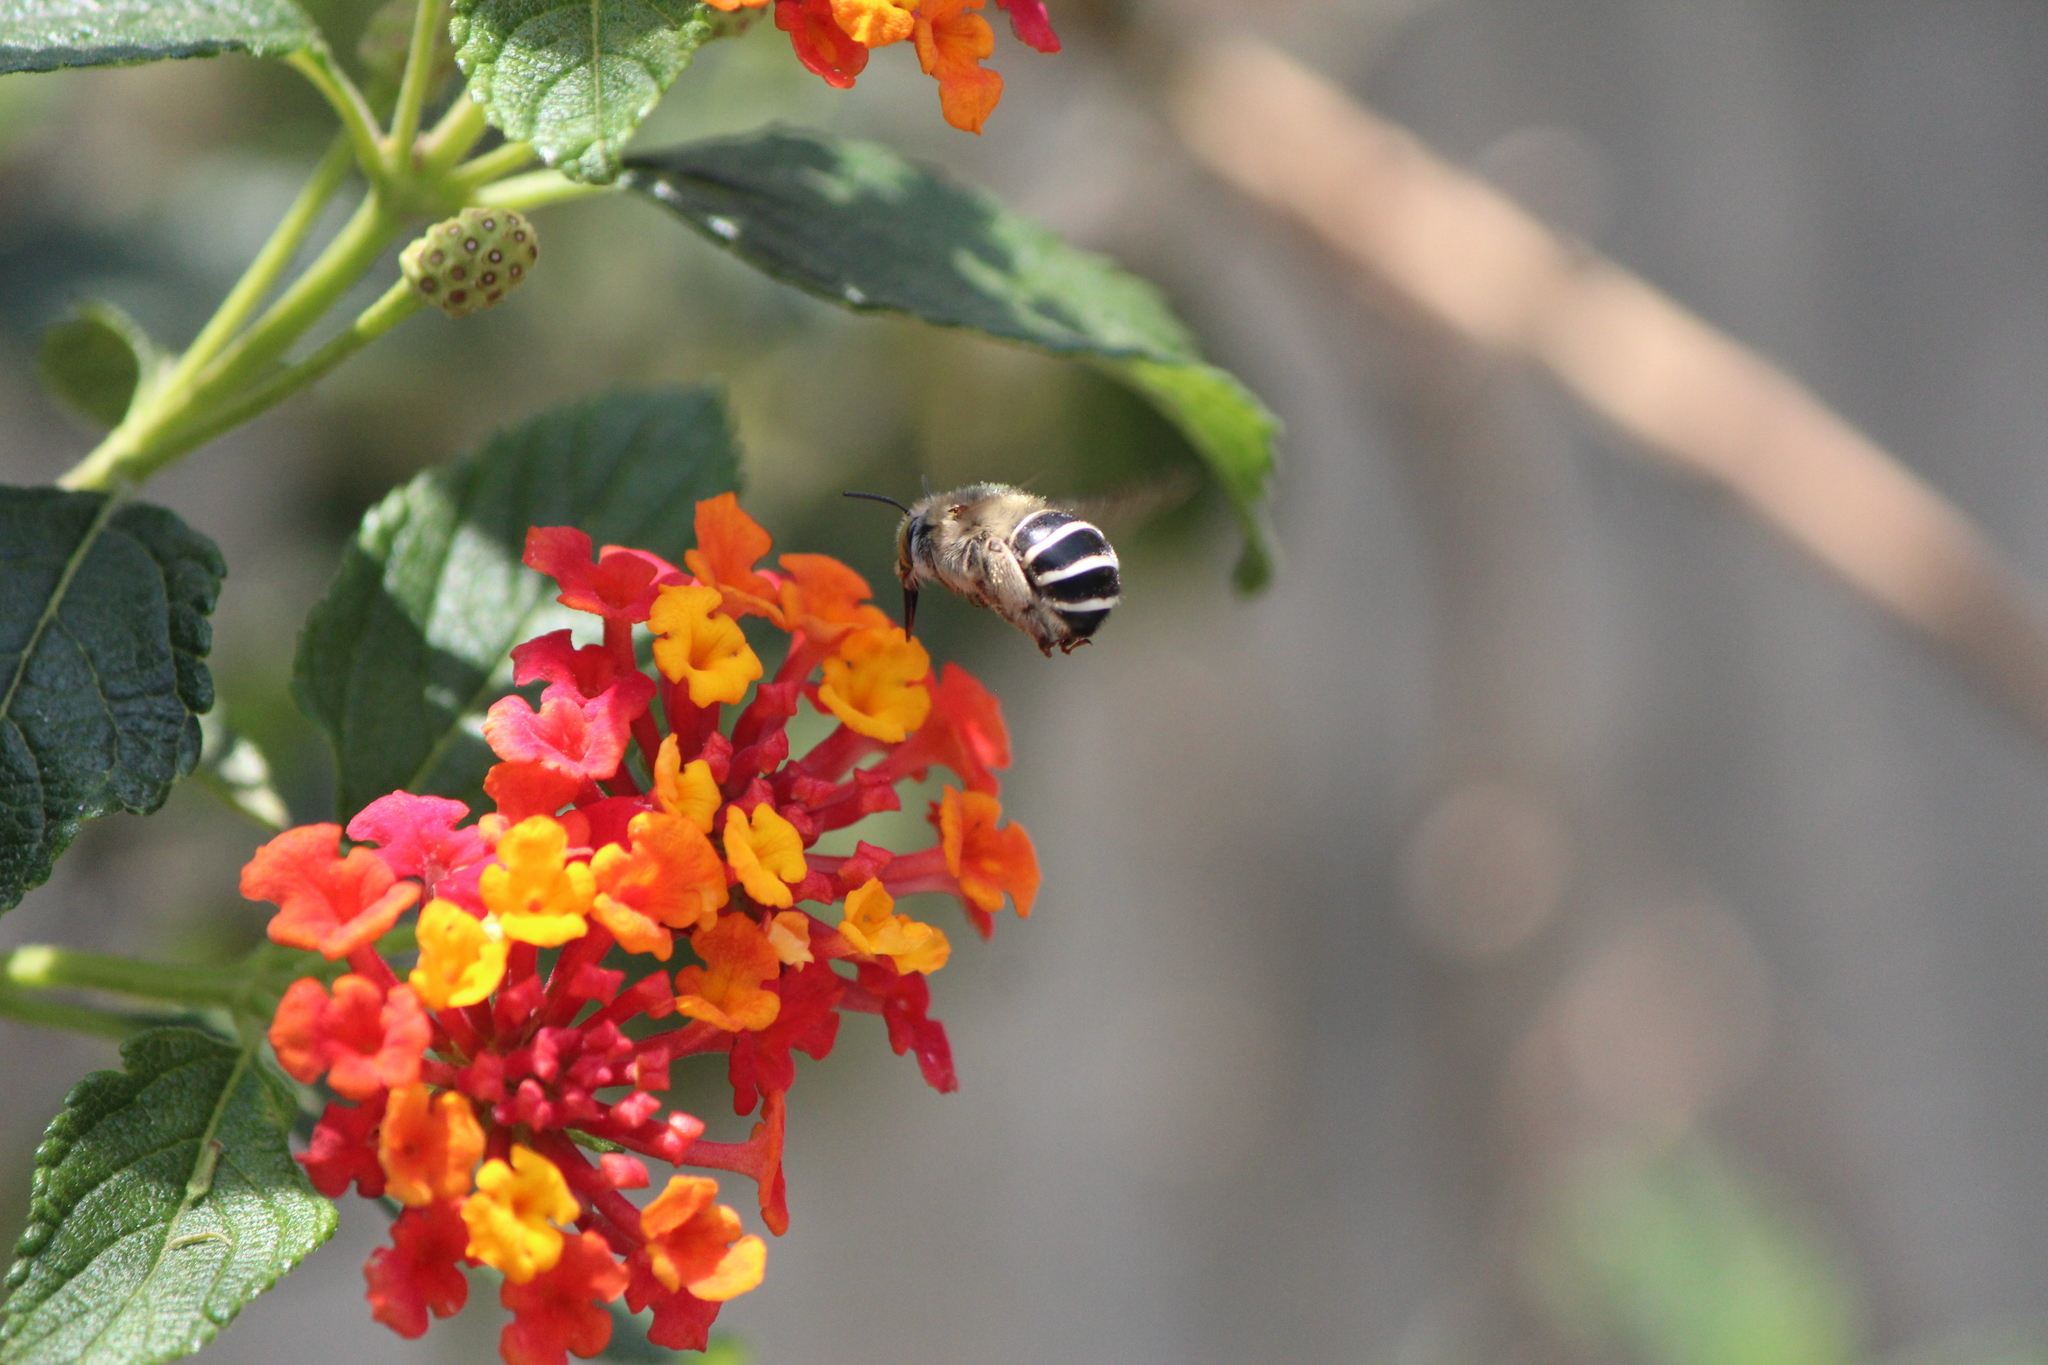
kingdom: Animalia
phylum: Arthropoda
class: Insecta
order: Hymenoptera
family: Apidae
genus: Anthophora
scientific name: Anthophora californica
